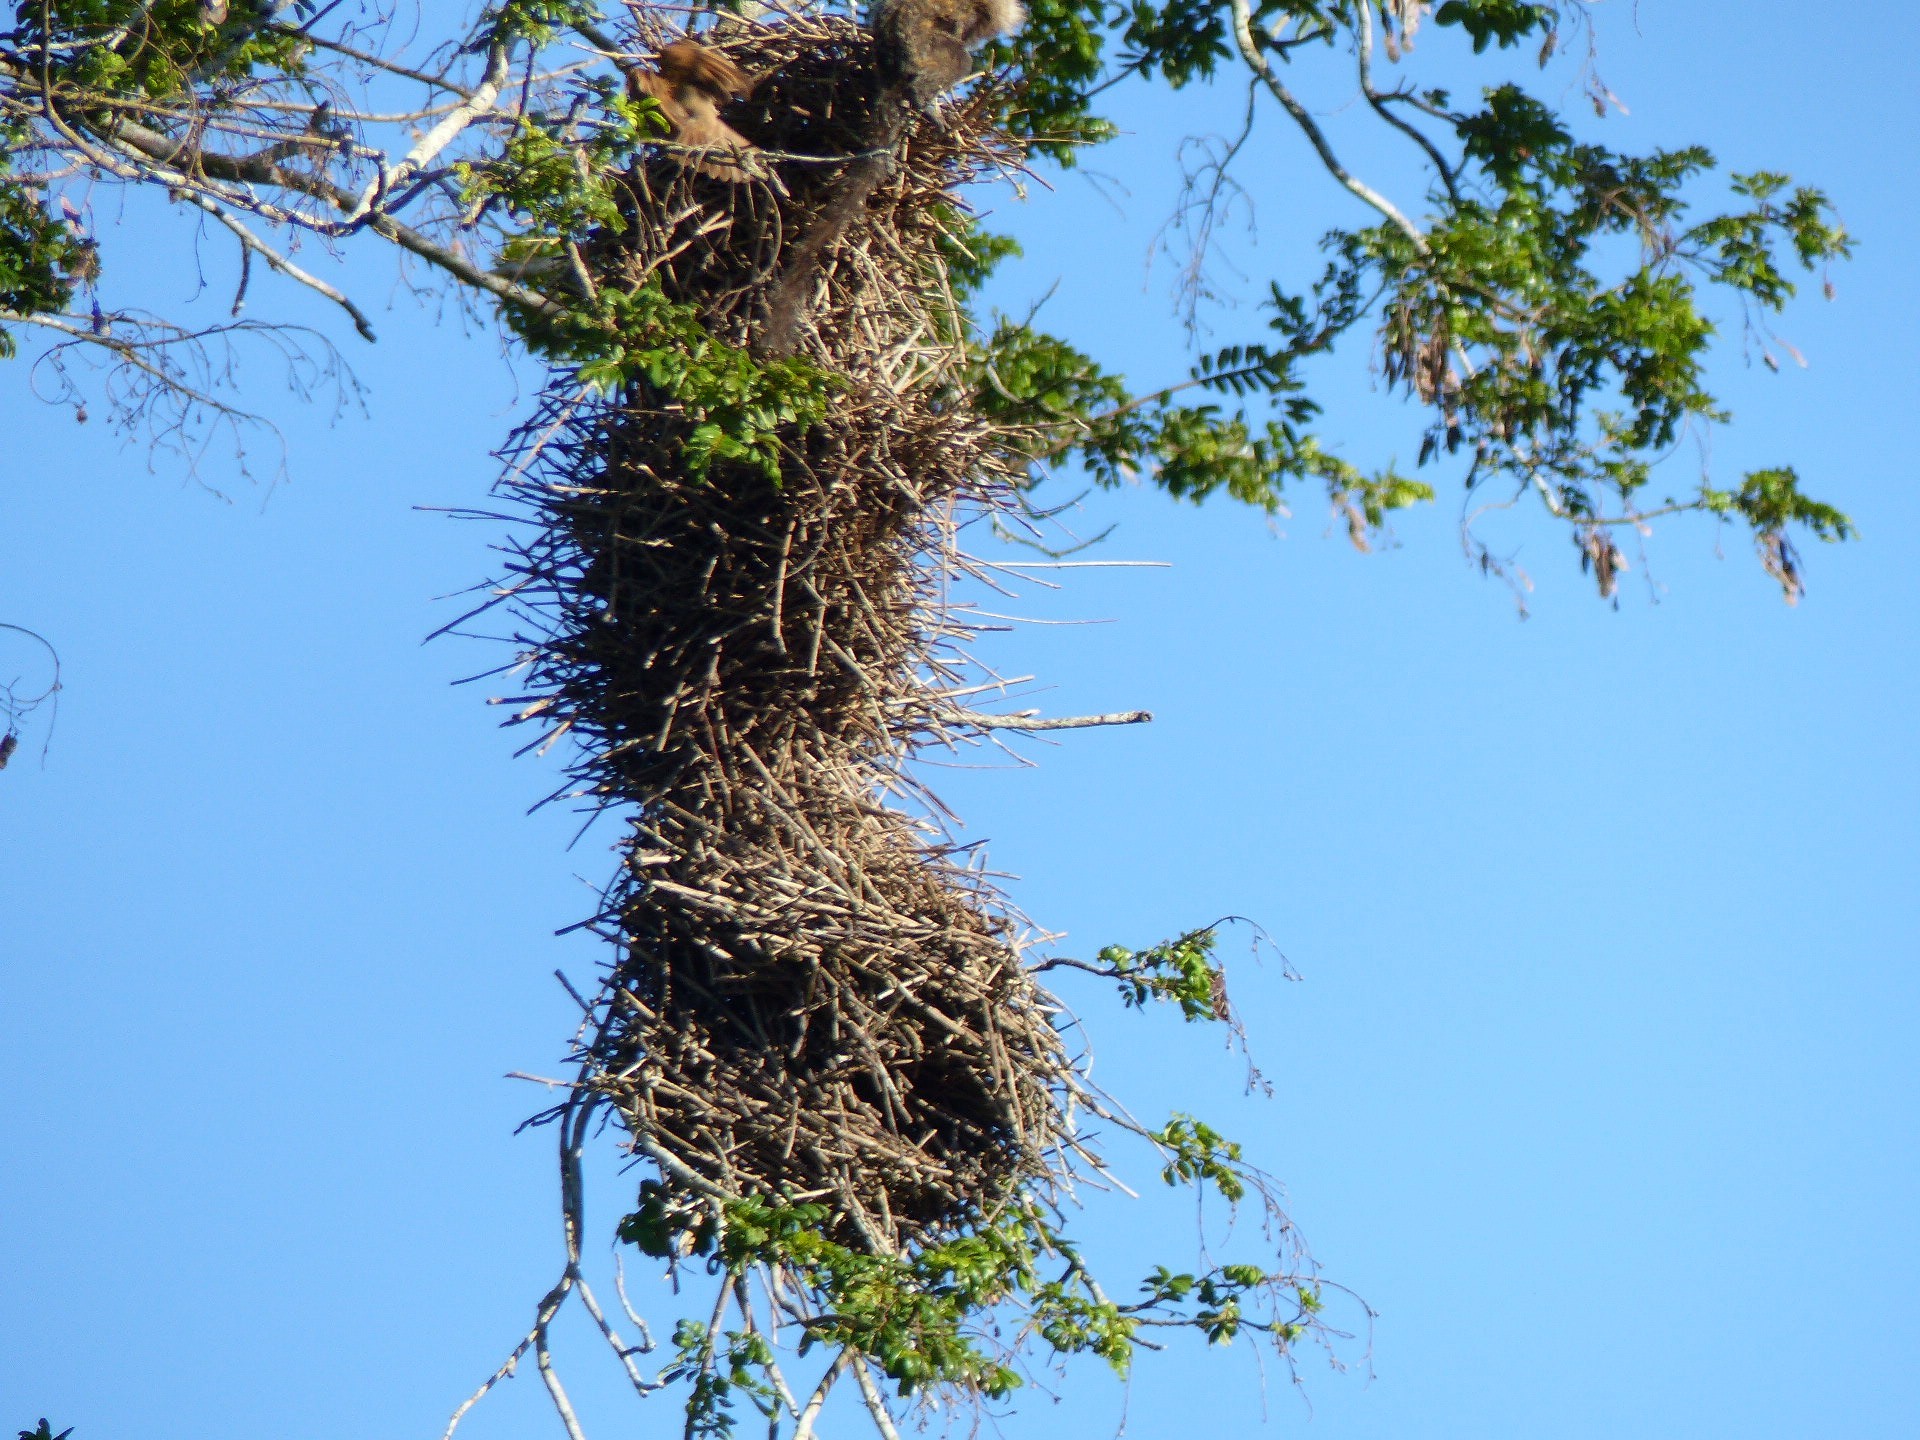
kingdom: Animalia
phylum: Chordata
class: Aves
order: Passeriformes
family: Icteridae
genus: Agelaioides
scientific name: Agelaioides badius
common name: Baywing
